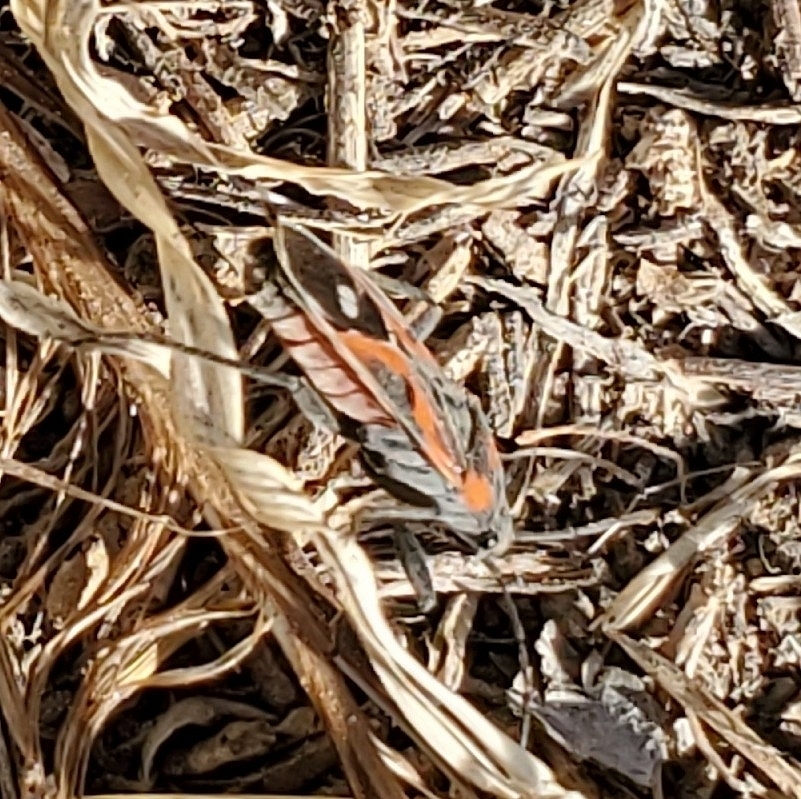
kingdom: Animalia
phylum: Arthropoda
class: Insecta
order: Hemiptera
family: Lygaeidae
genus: Lygaeus
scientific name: Lygaeus kalmii
